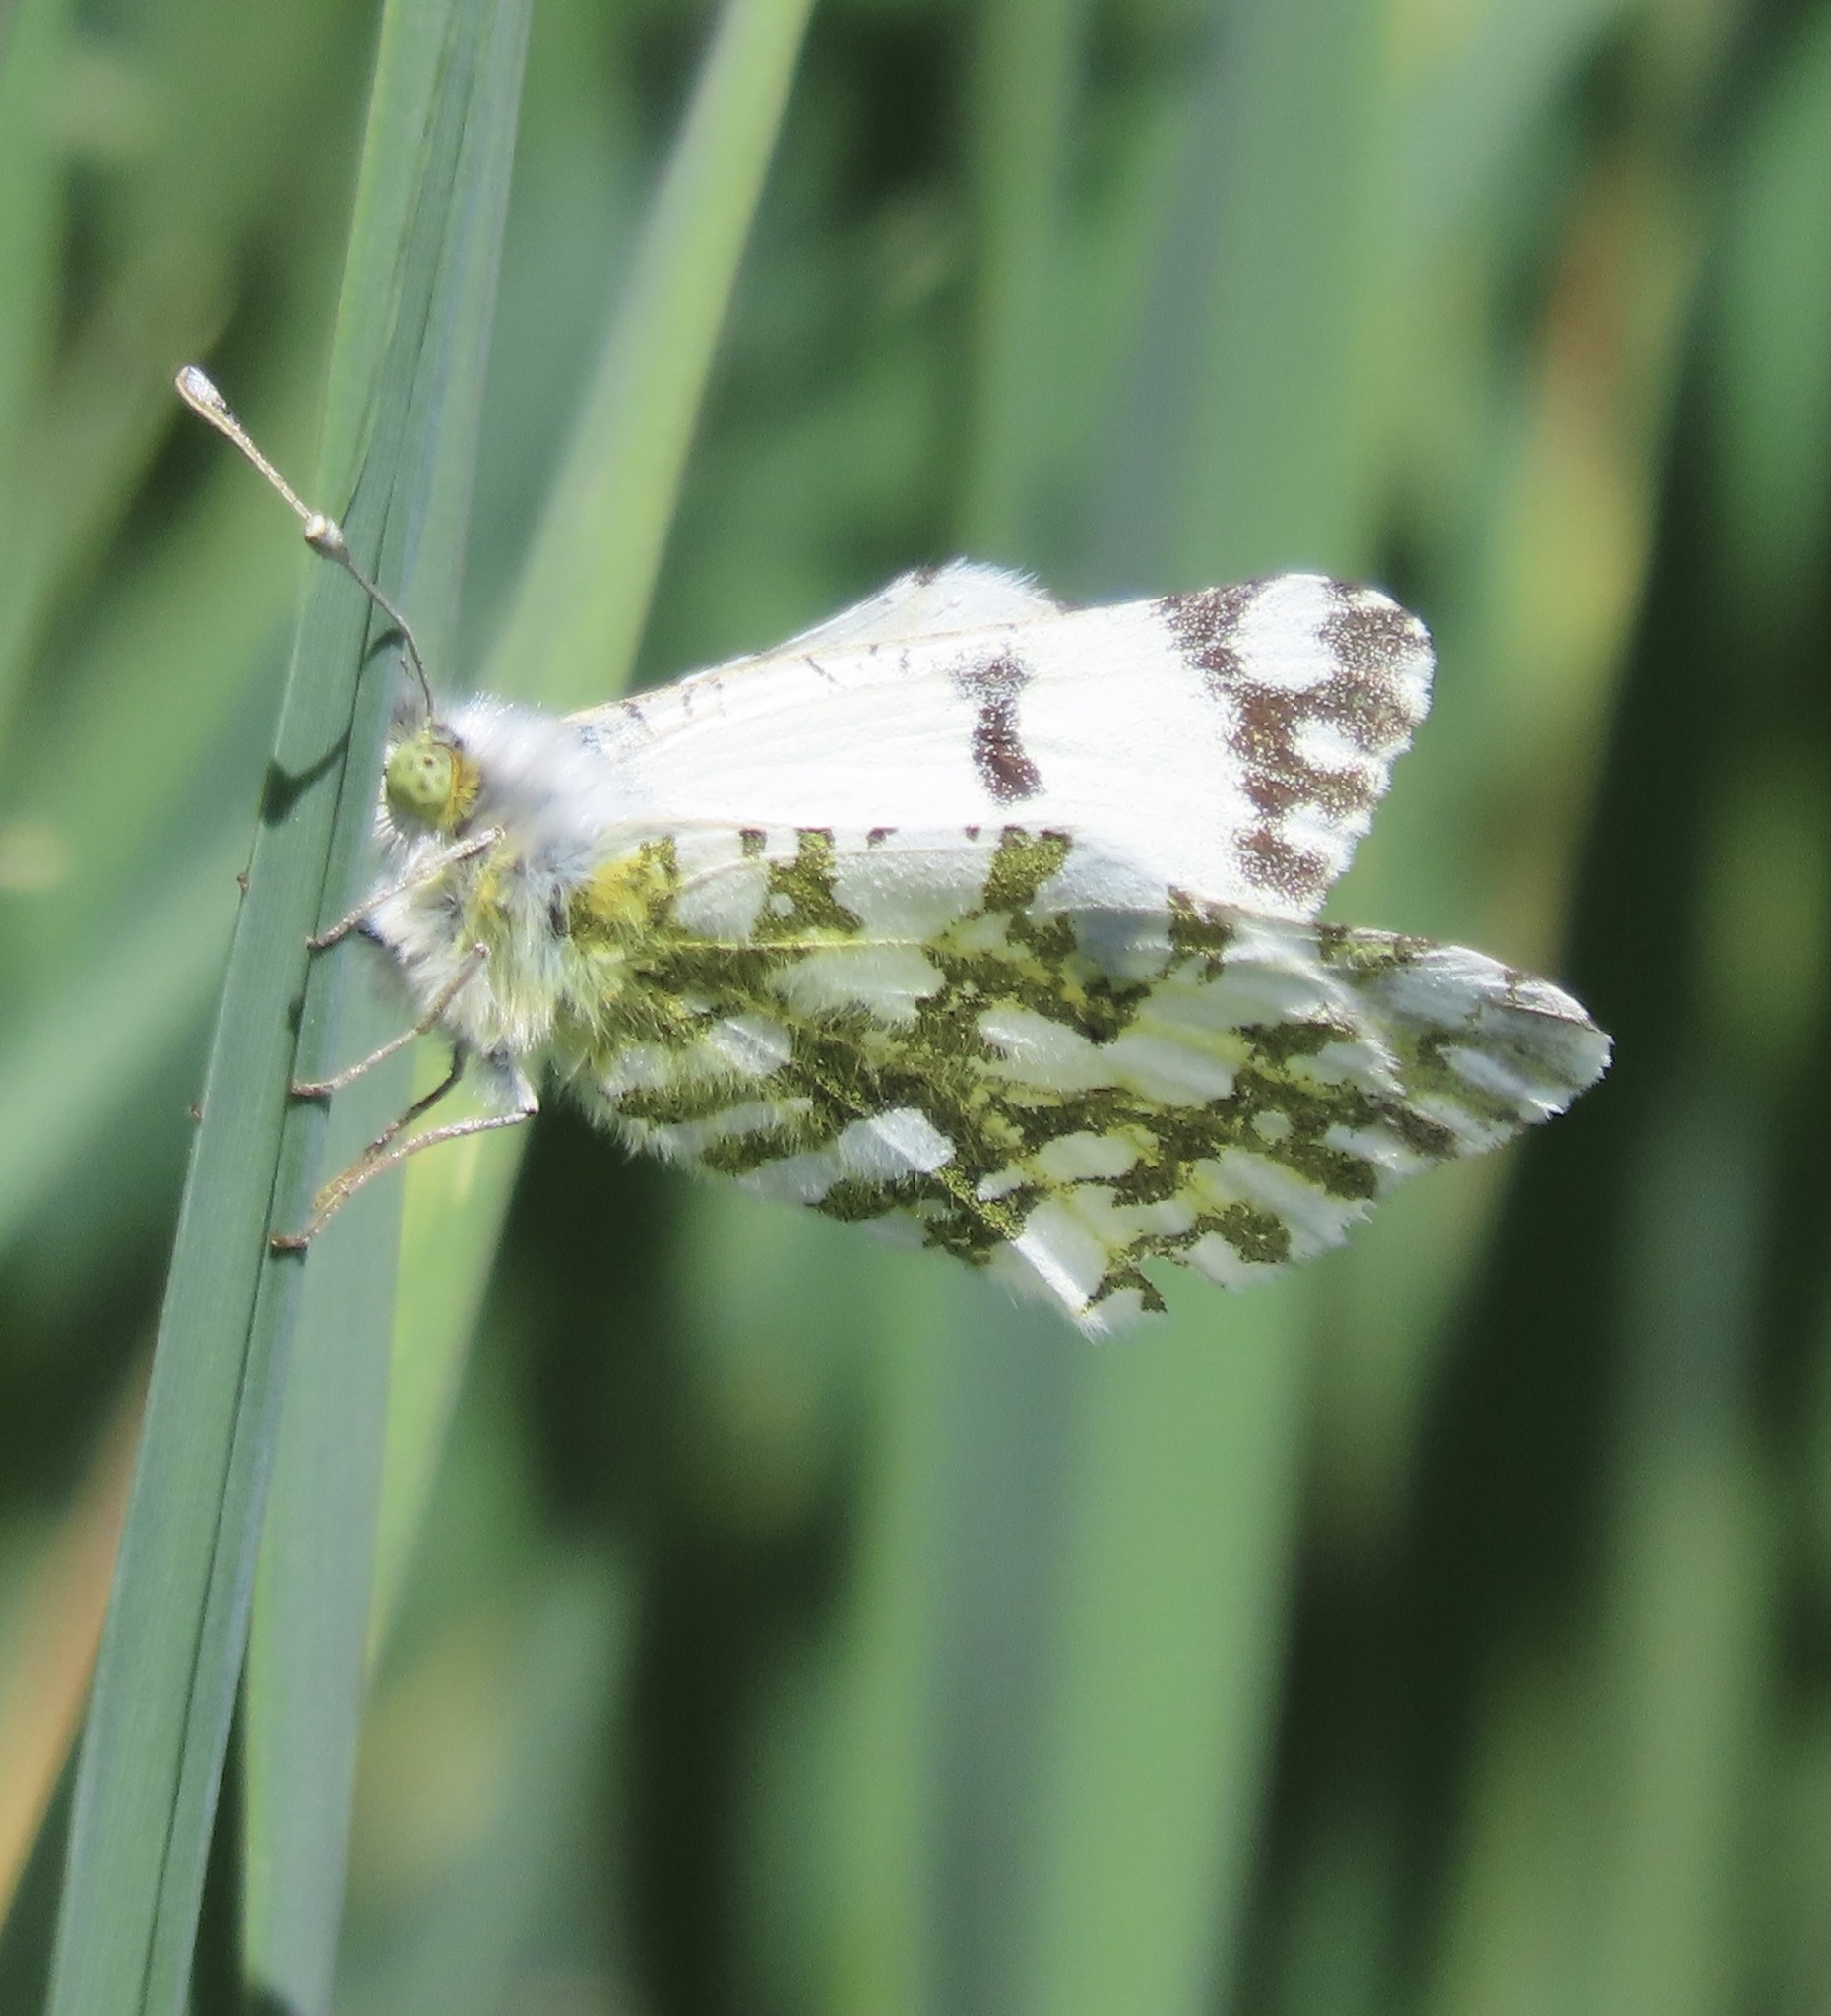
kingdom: Animalia
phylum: Arthropoda
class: Insecta
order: Lepidoptera
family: Pieridae
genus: Euchloe
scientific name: Euchloe ausonides
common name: Creamy marblewing
